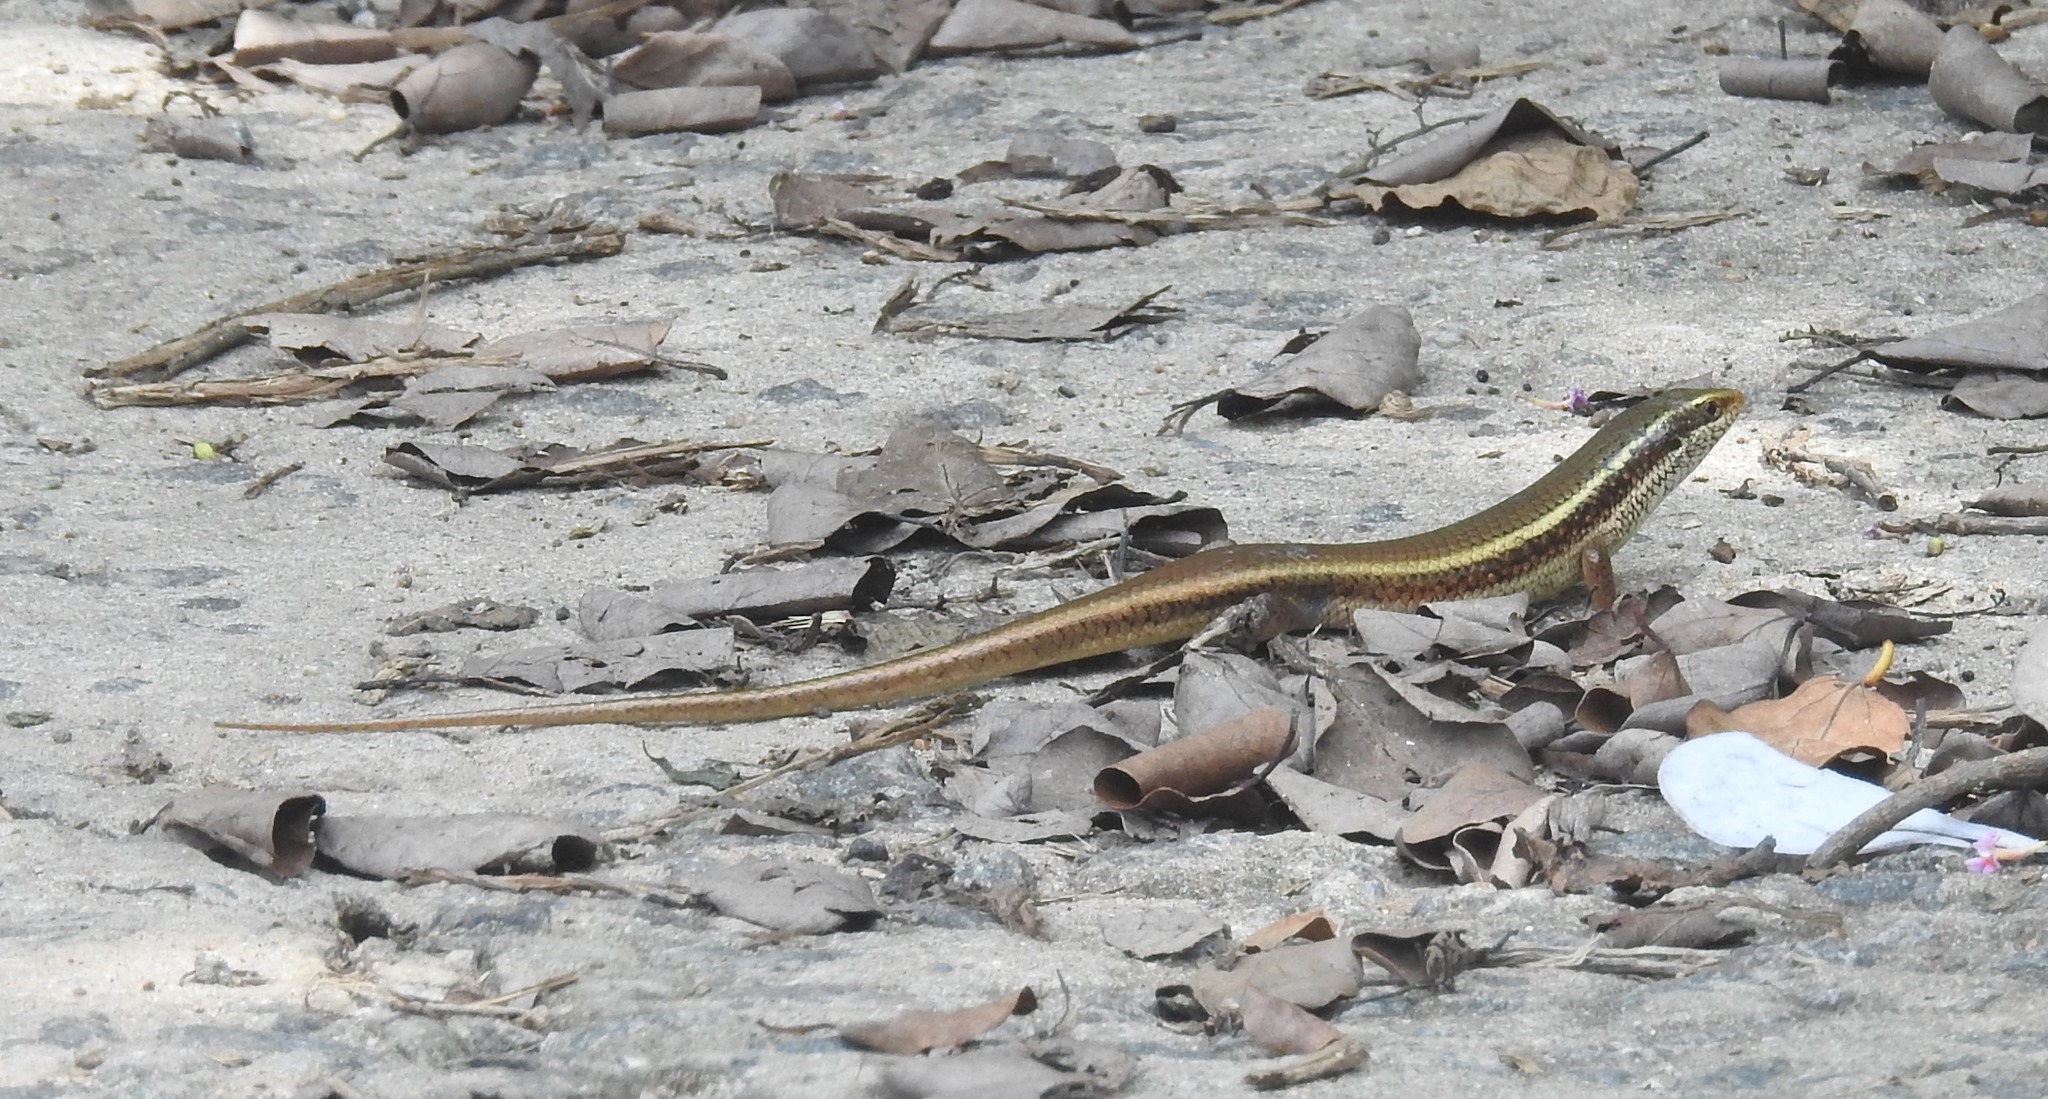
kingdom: Animalia
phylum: Chordata
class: Squamata
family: Scincidae
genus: Eutropis
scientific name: Eutropis carinata
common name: Keeled indian mabuya
